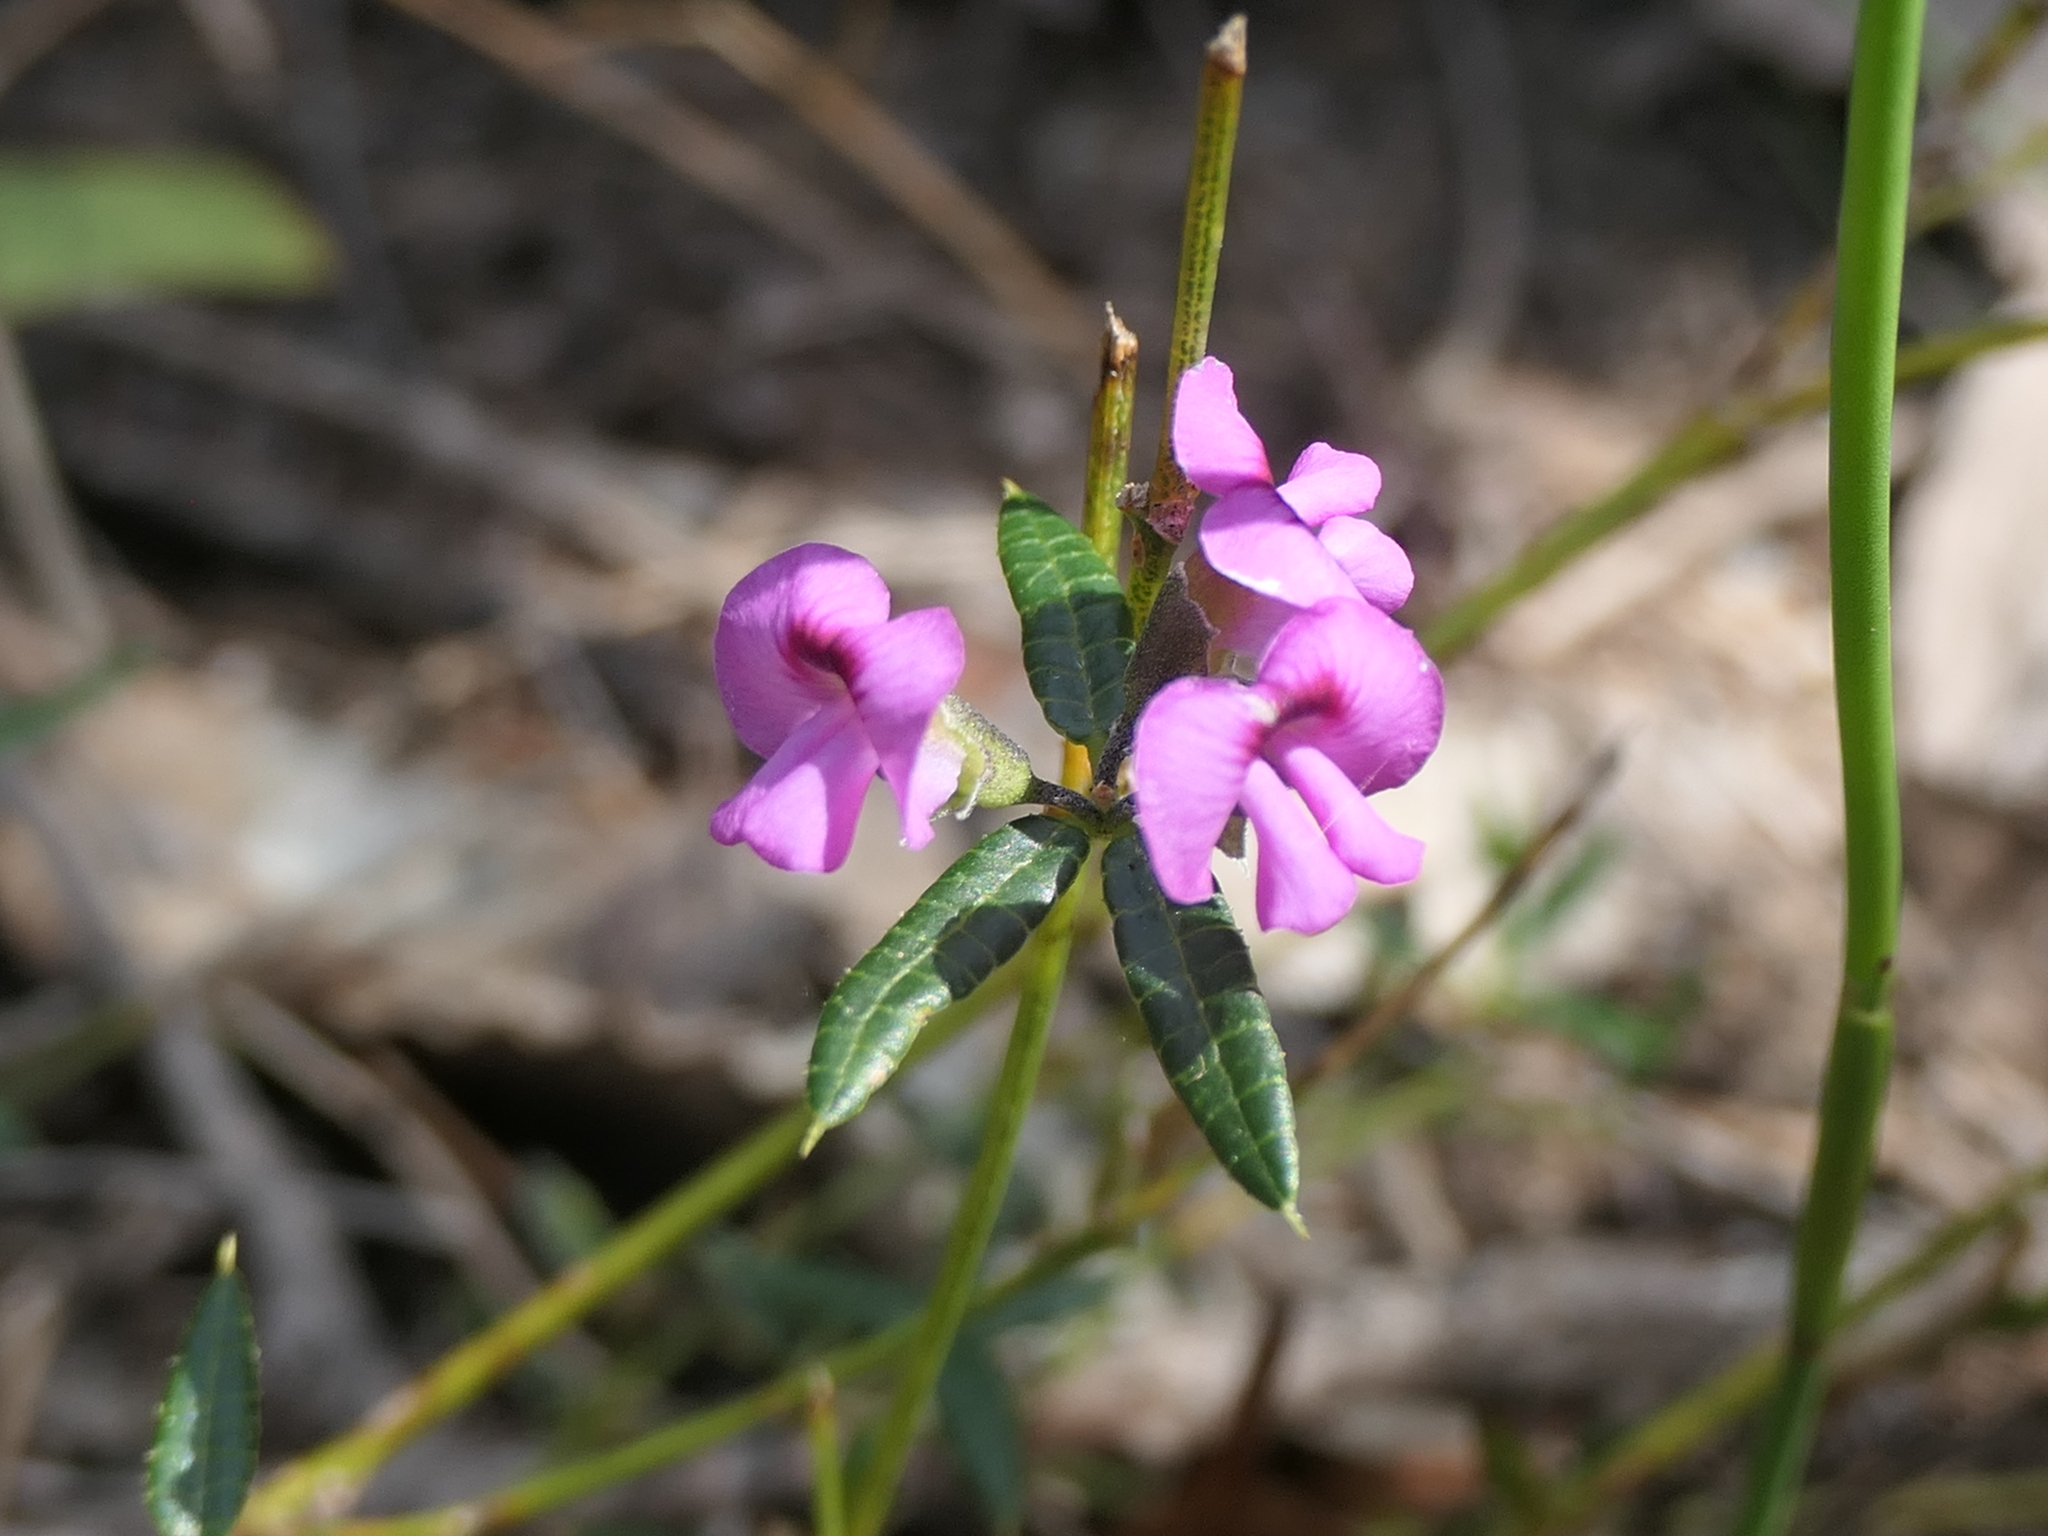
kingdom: Plantae
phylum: Tracheophyta
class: Magnoliopsida
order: Fabales
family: Fabaceae
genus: Mirbelia
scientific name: Mirbelia rubiifolia
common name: Heathy mirbelia
